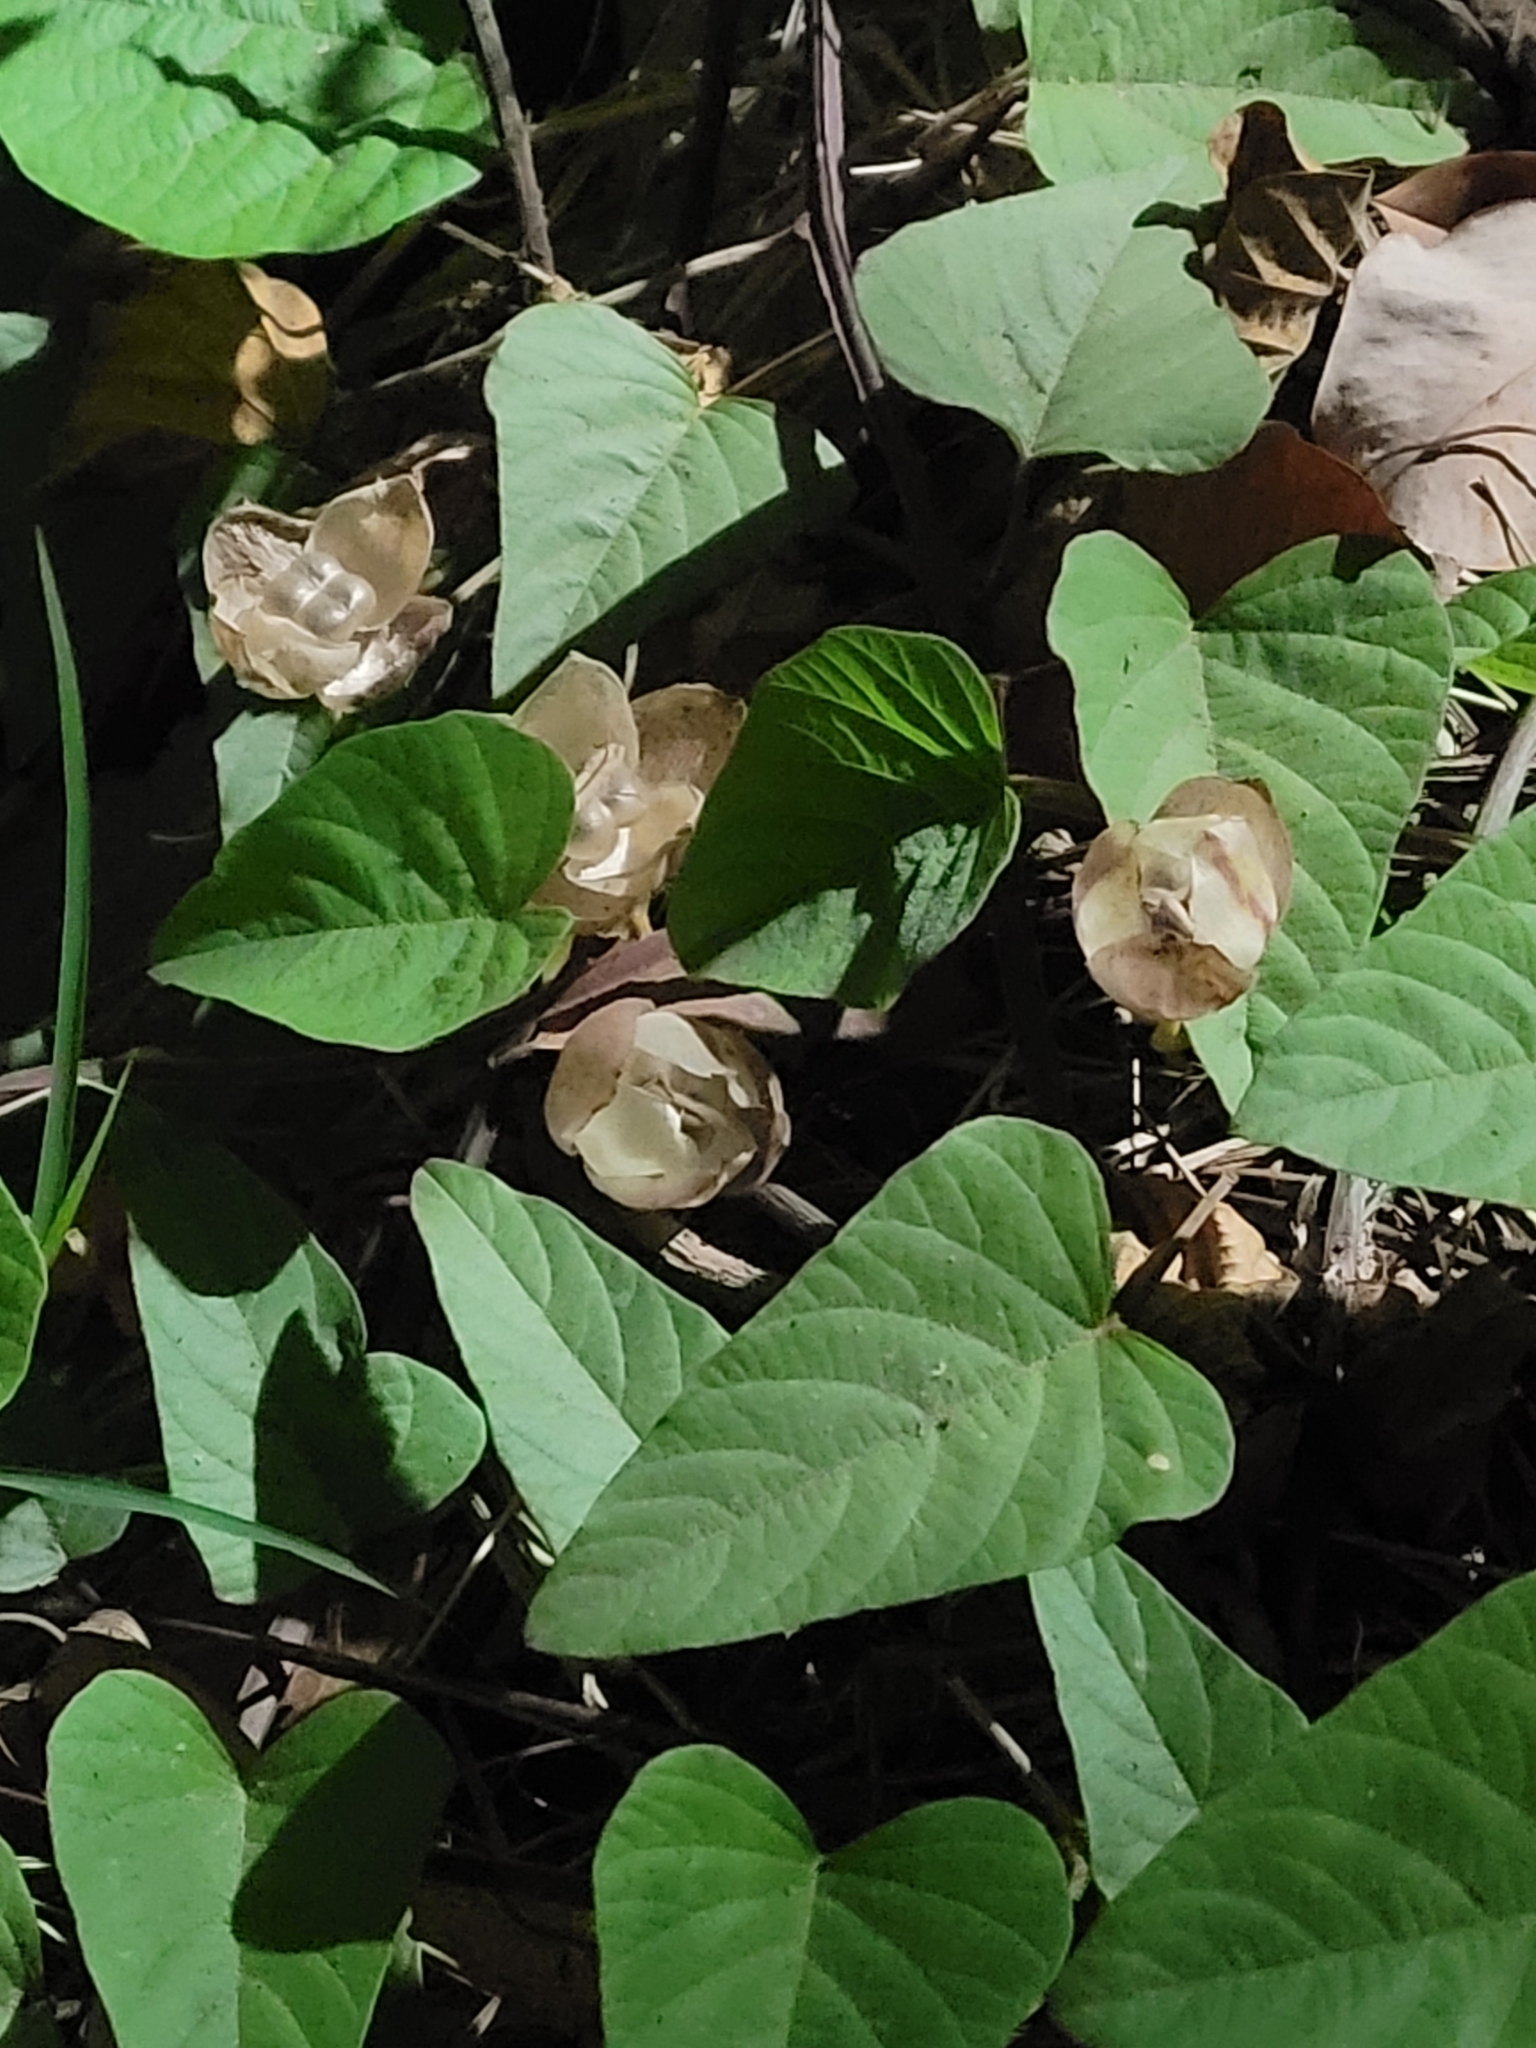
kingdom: Plantae
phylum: Tracheophyta
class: Magnoliopsida
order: Solanales
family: Convolvulaceae
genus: Operculina
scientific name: Operculina turpethum
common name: Transparent wood-rose
